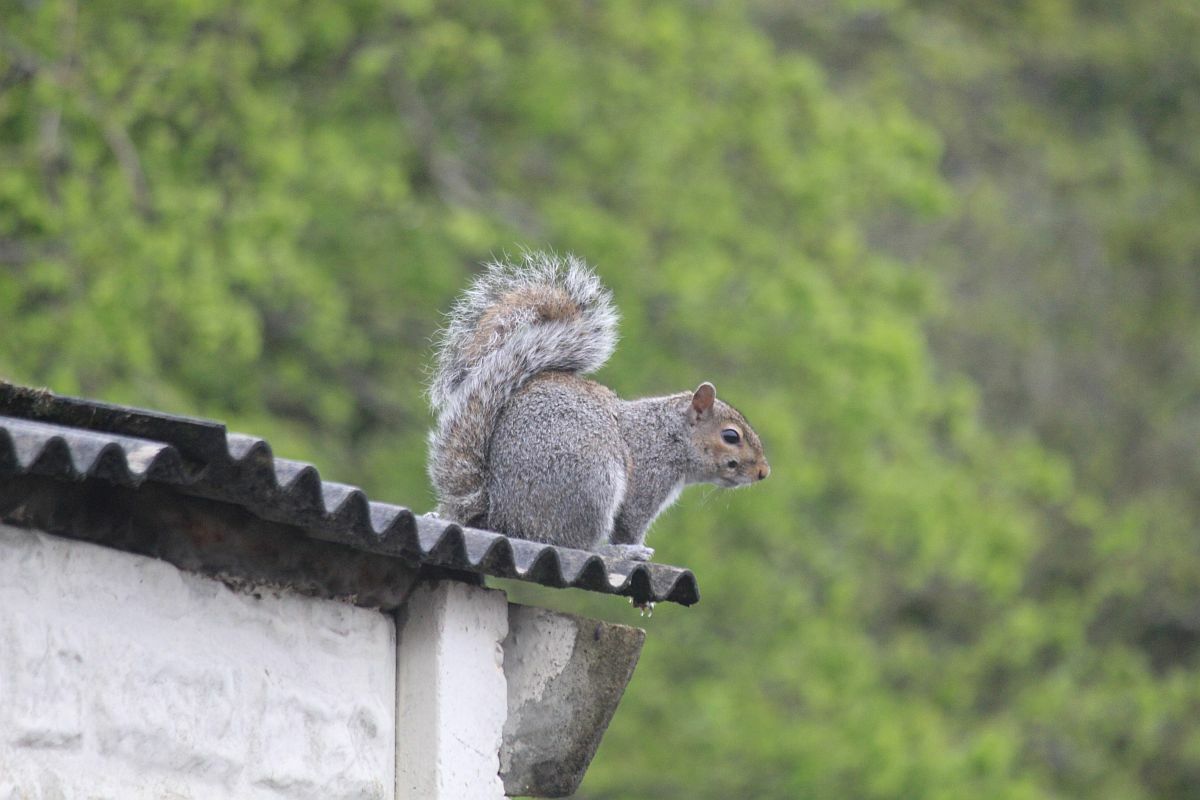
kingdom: Animalia
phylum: Chordata
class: Mammalia
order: Rodentia
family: Sciuridae
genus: Sciurus
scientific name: Sciurus carolinensis
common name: Eastern gray squirrel
